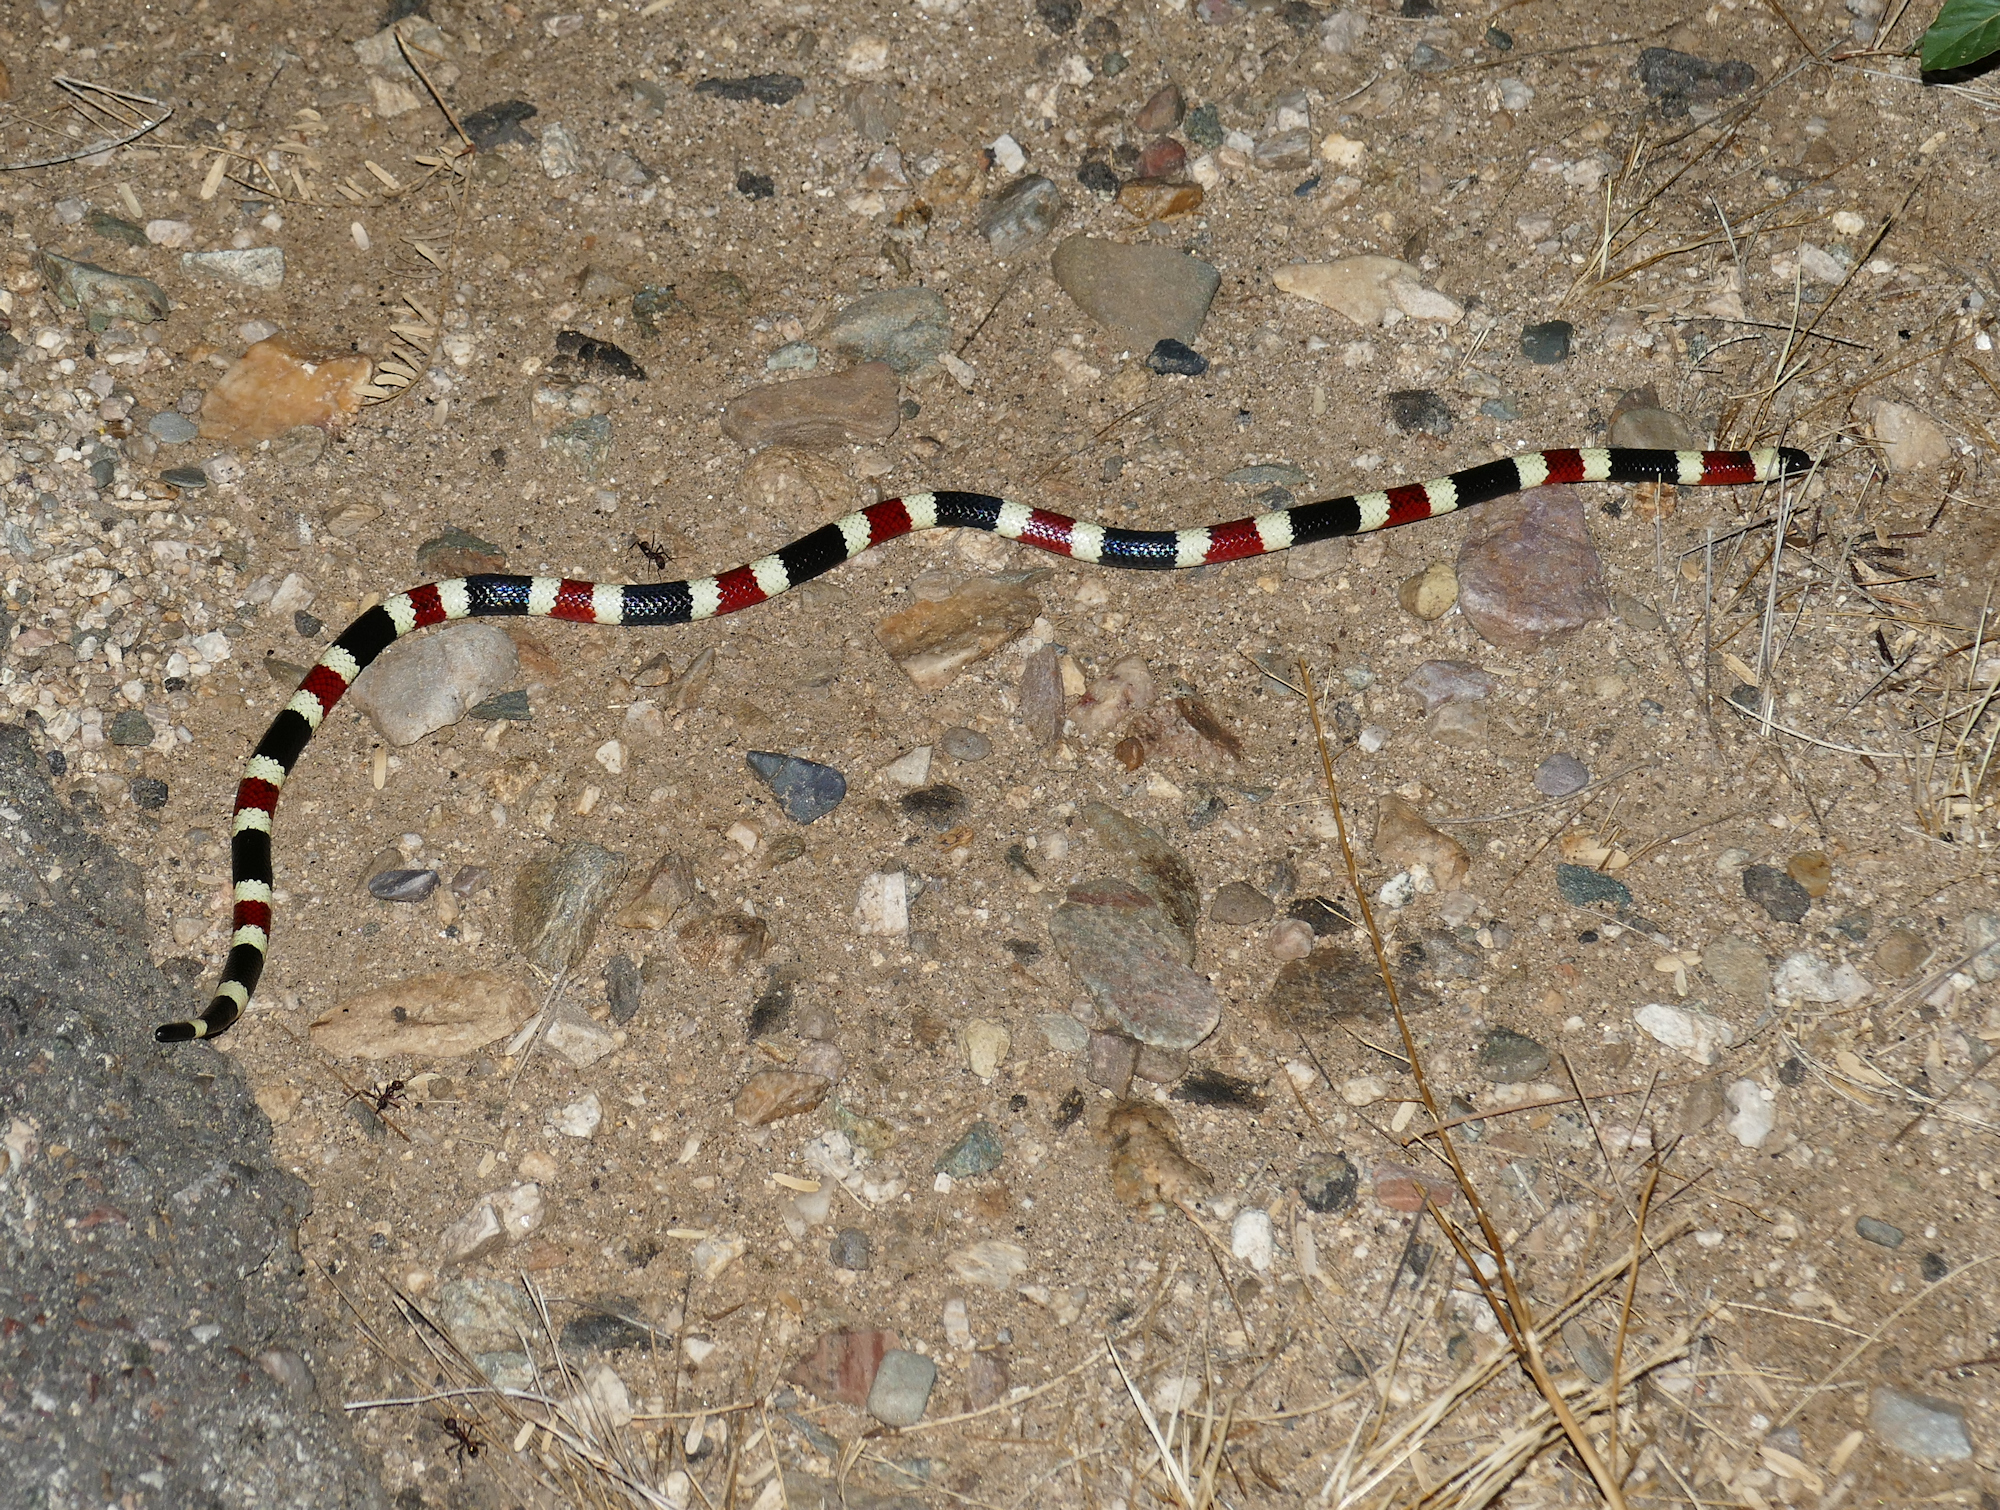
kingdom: Animalia
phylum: Chordata
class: Squamata
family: Elapidae
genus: Micruroides
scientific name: Micruroides euryxanthus
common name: Western coral snake
